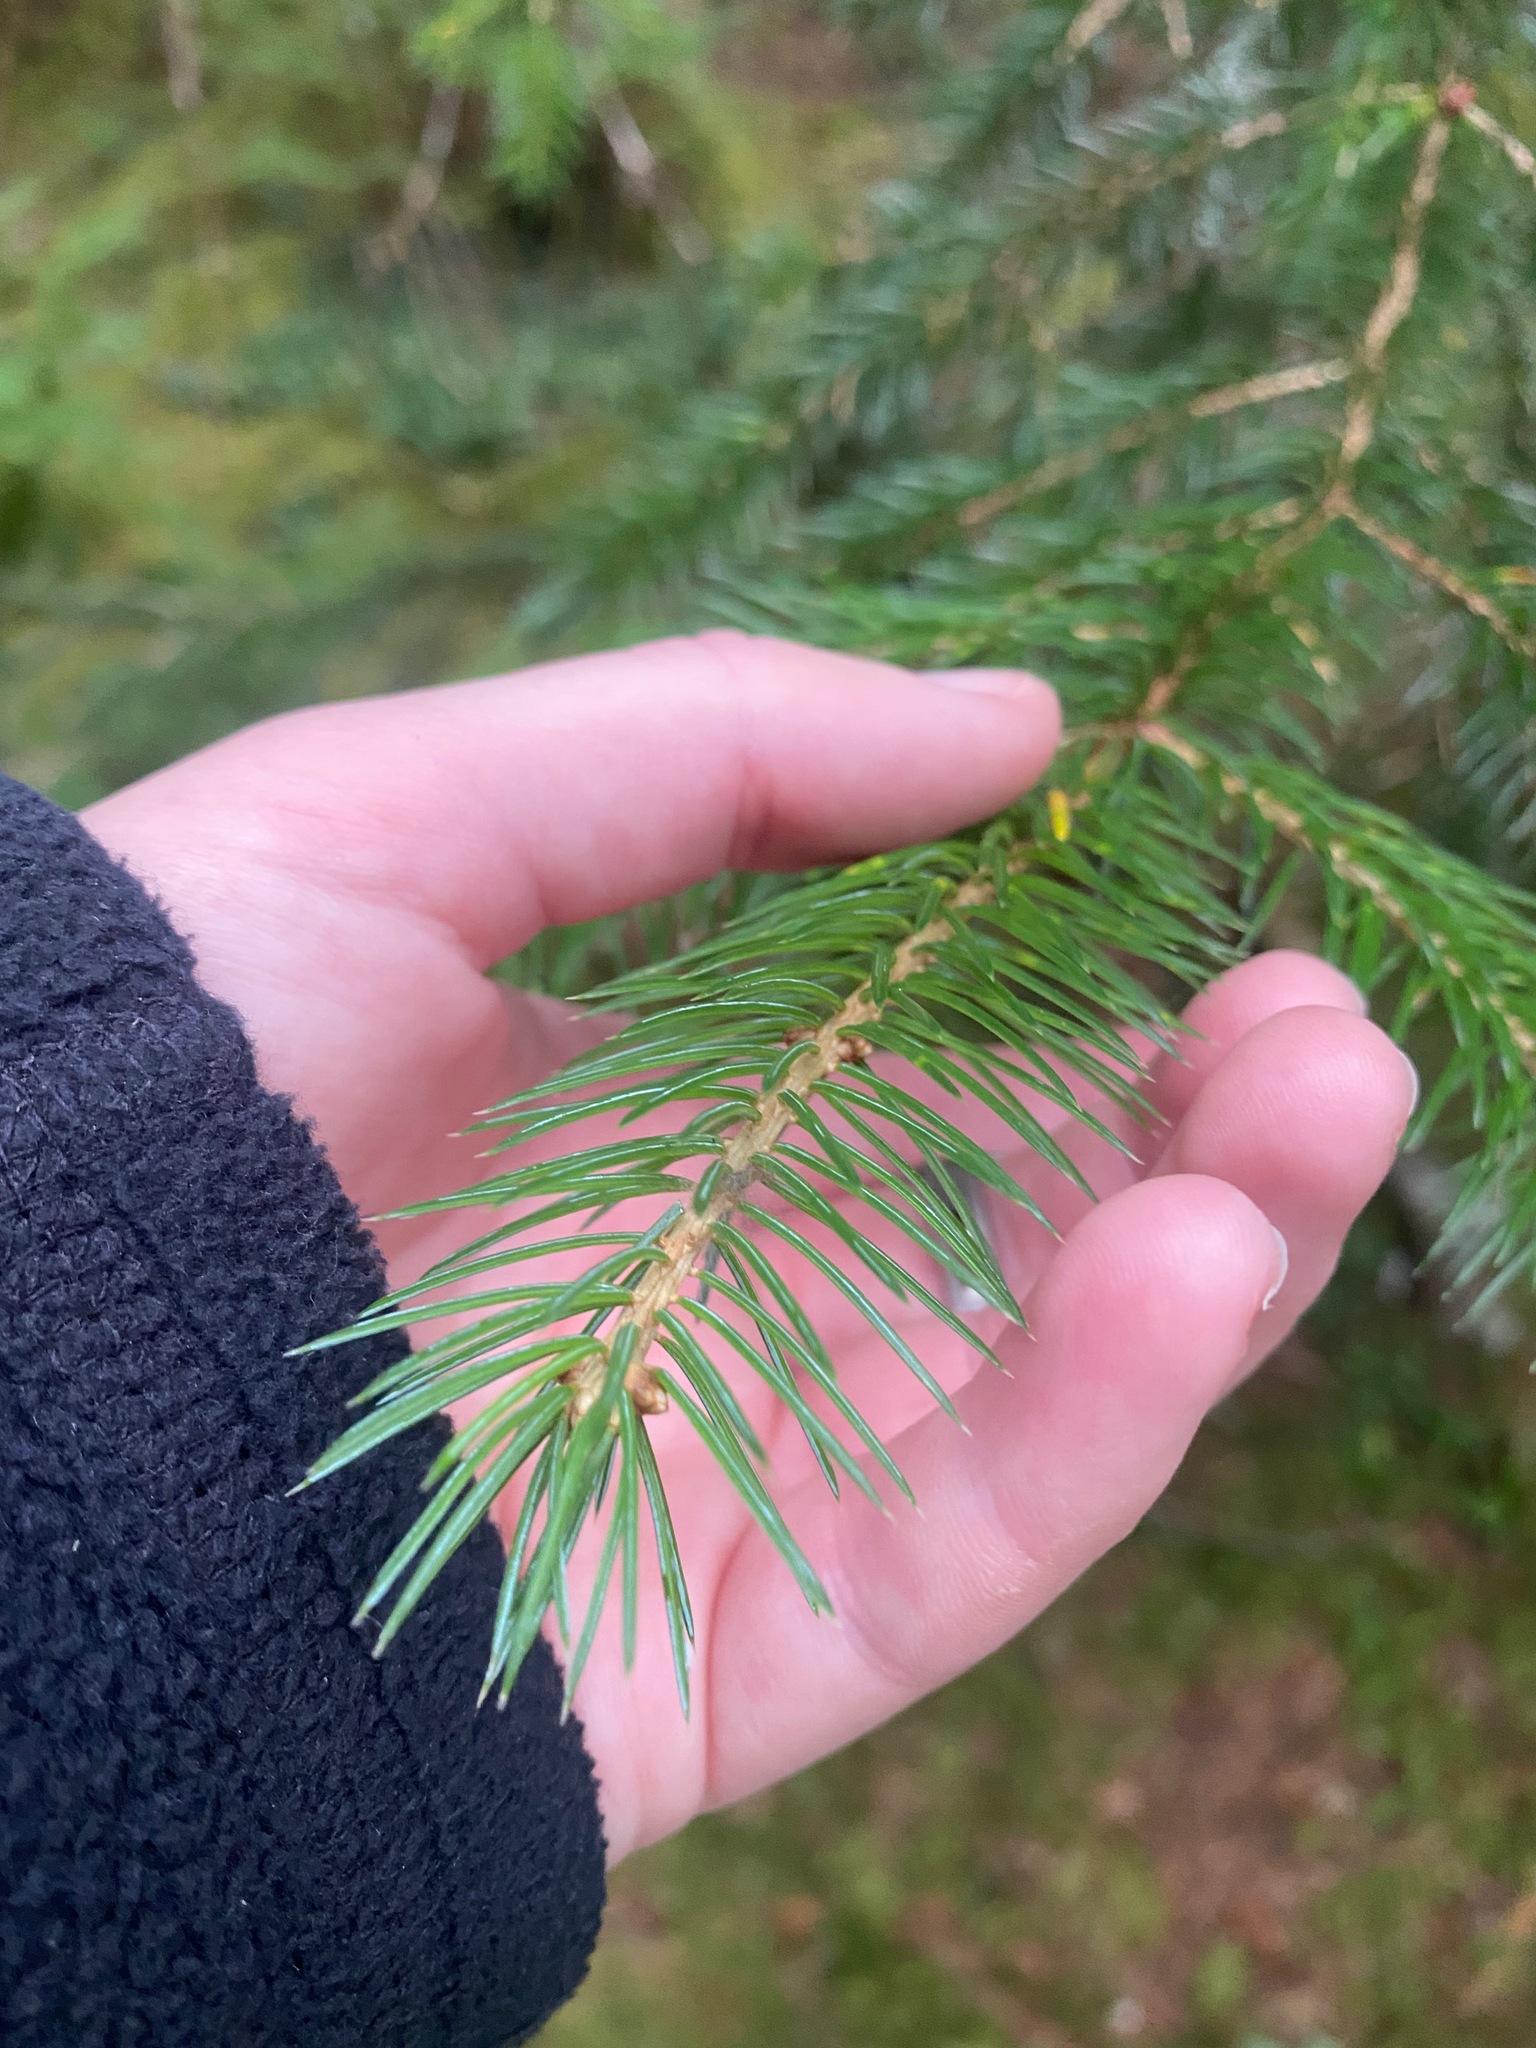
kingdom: Plantae
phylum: Tracheophyta
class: Pinopsida
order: Pinales
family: Pinaceae
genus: Picea
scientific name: Picea sitchensis
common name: Sitka spruce
